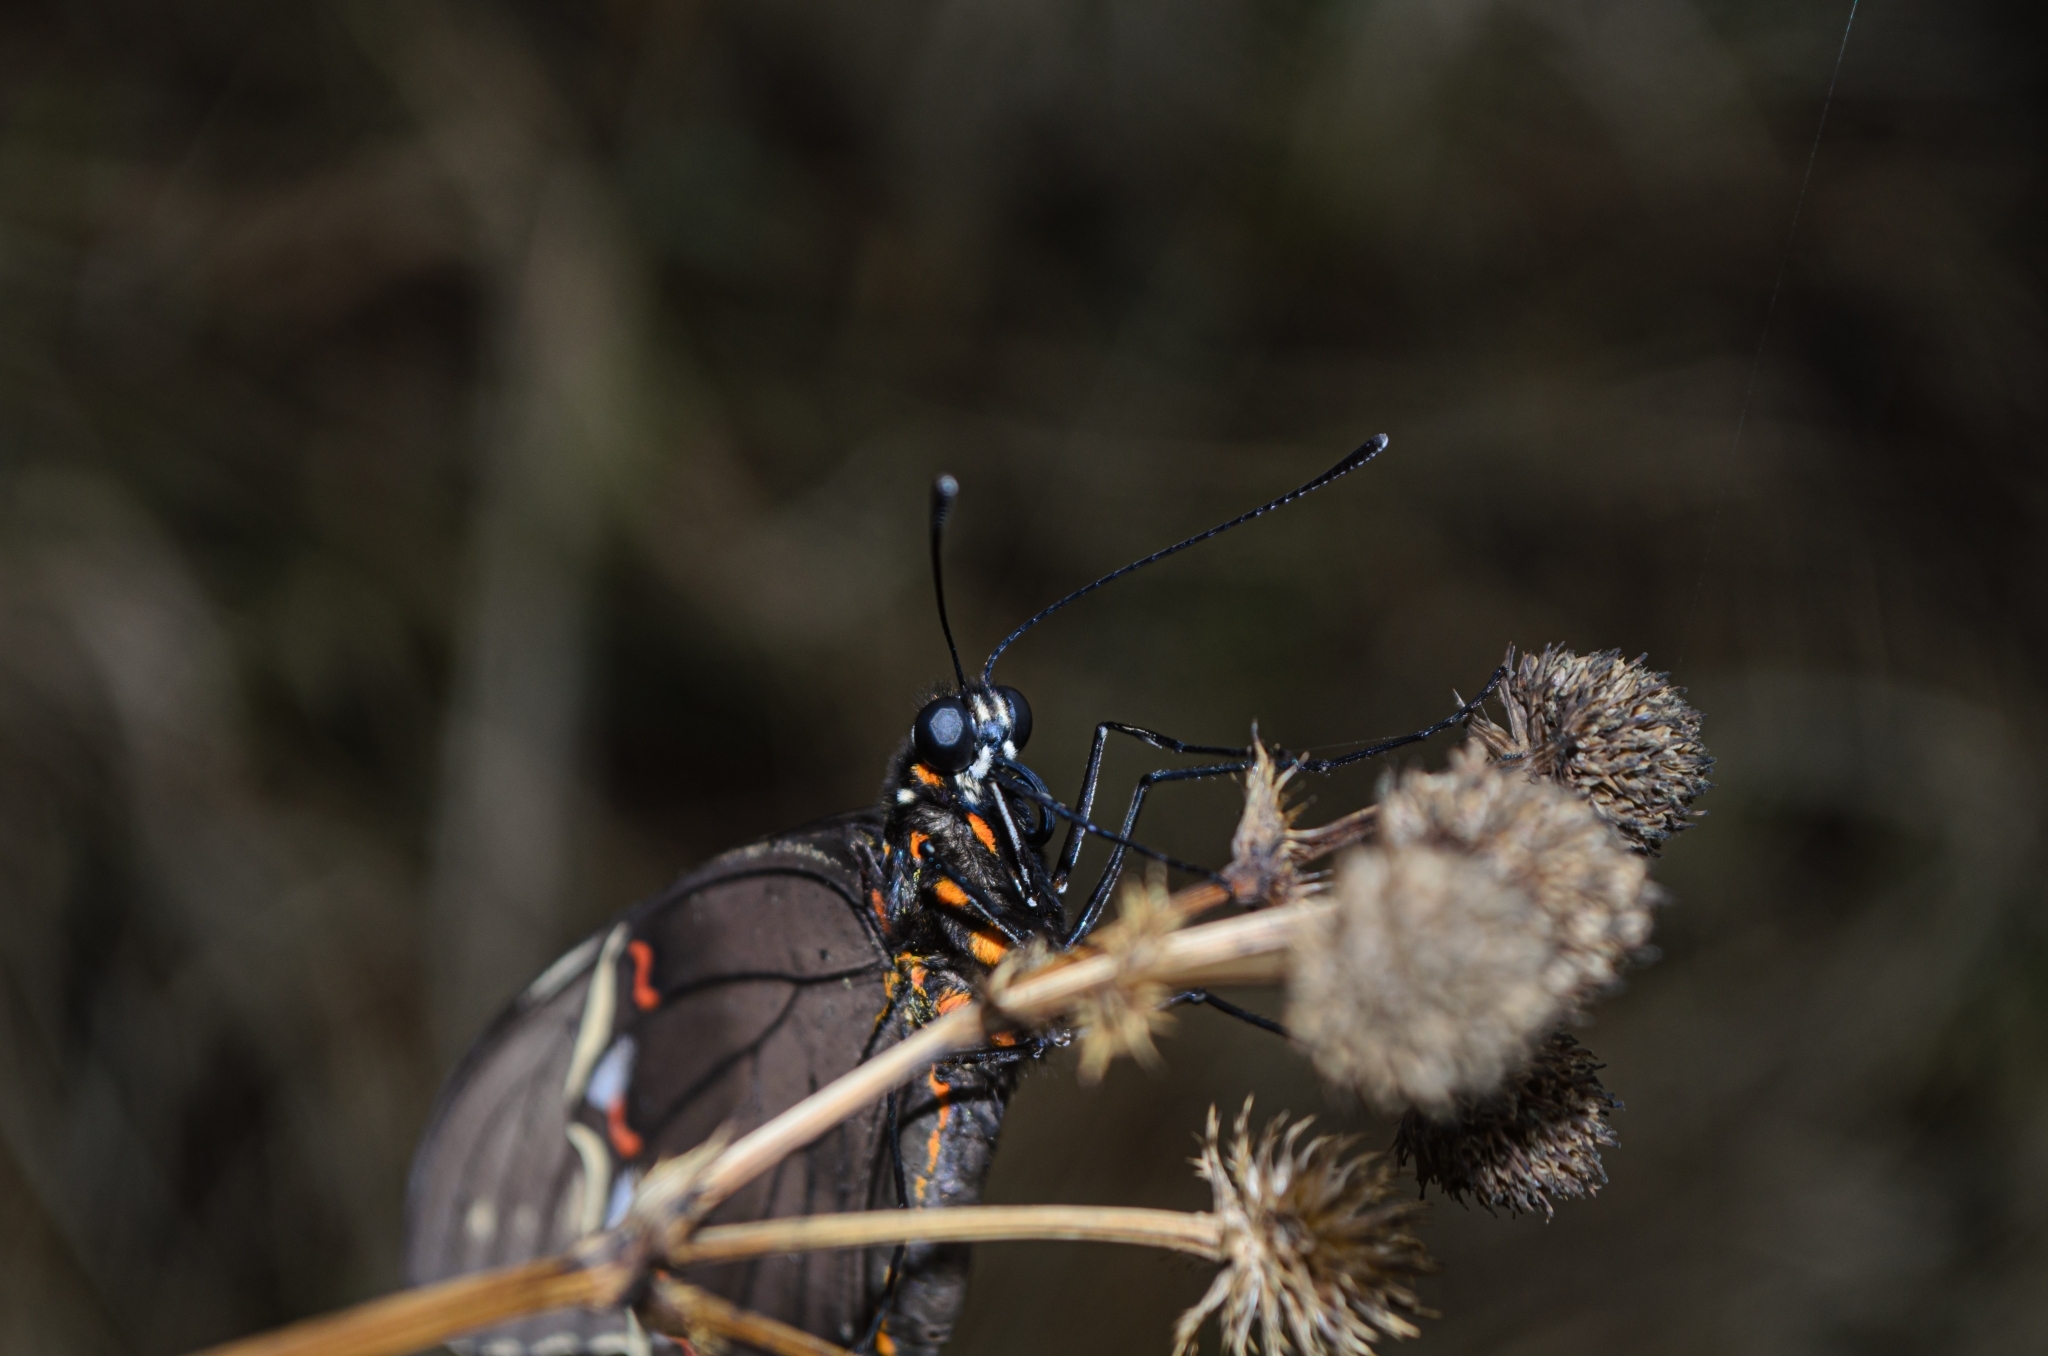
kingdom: Animalia
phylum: Arthropoda
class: Insecta
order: Lepidoptera
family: Papilionidae
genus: Battus
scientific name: Battus polydamas
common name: Polydamas swallowtail
